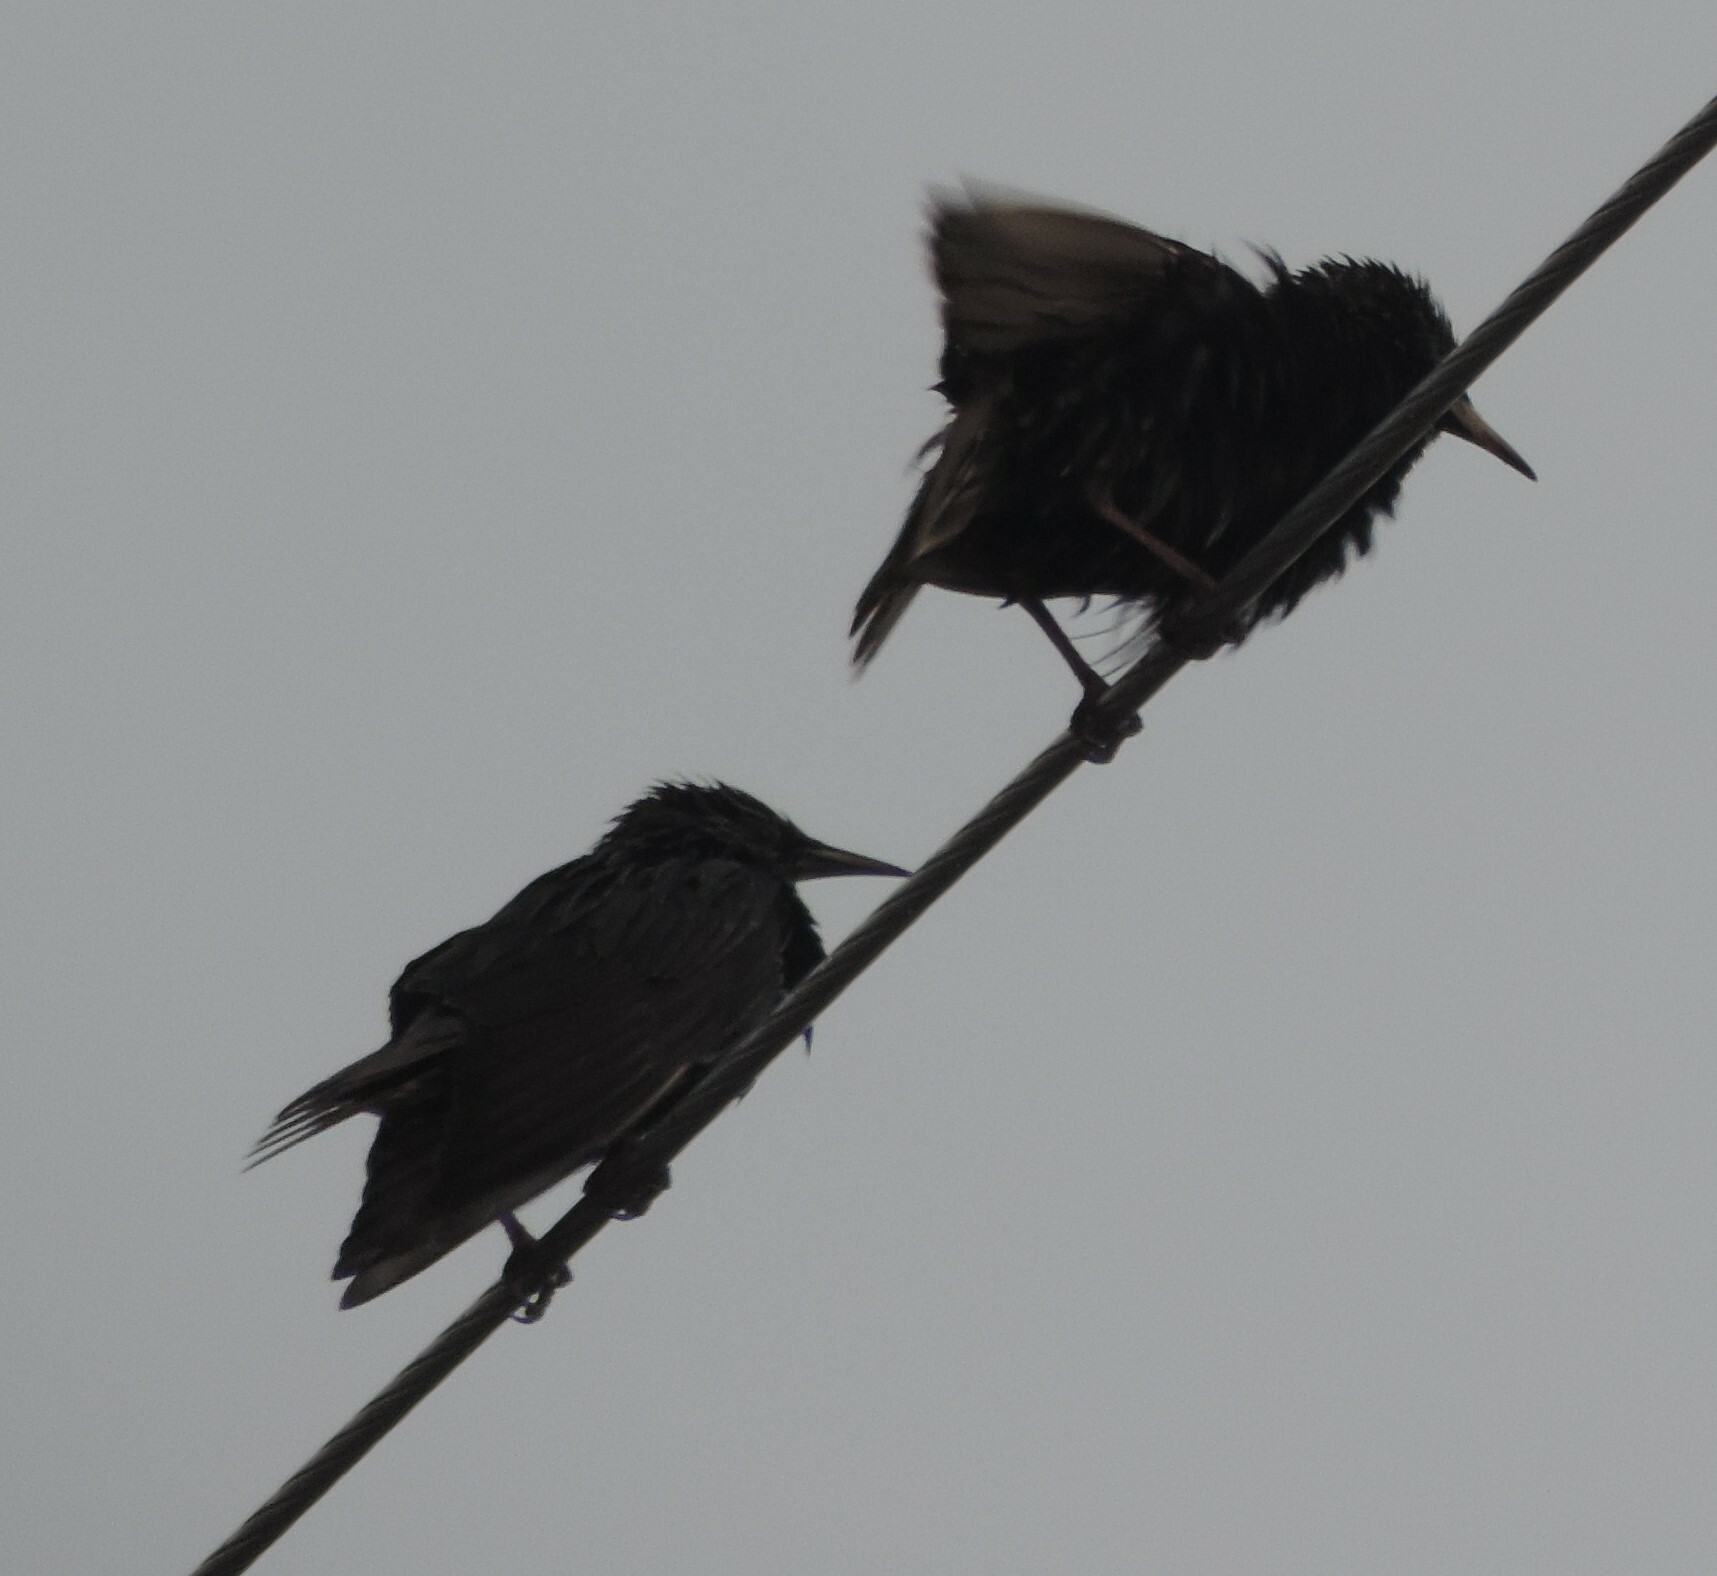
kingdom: Animalia
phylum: Chordata
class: Aves
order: Passeriformes
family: Sturnidae
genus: Sturnus
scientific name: Sturnus vulgaris
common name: Common starling
